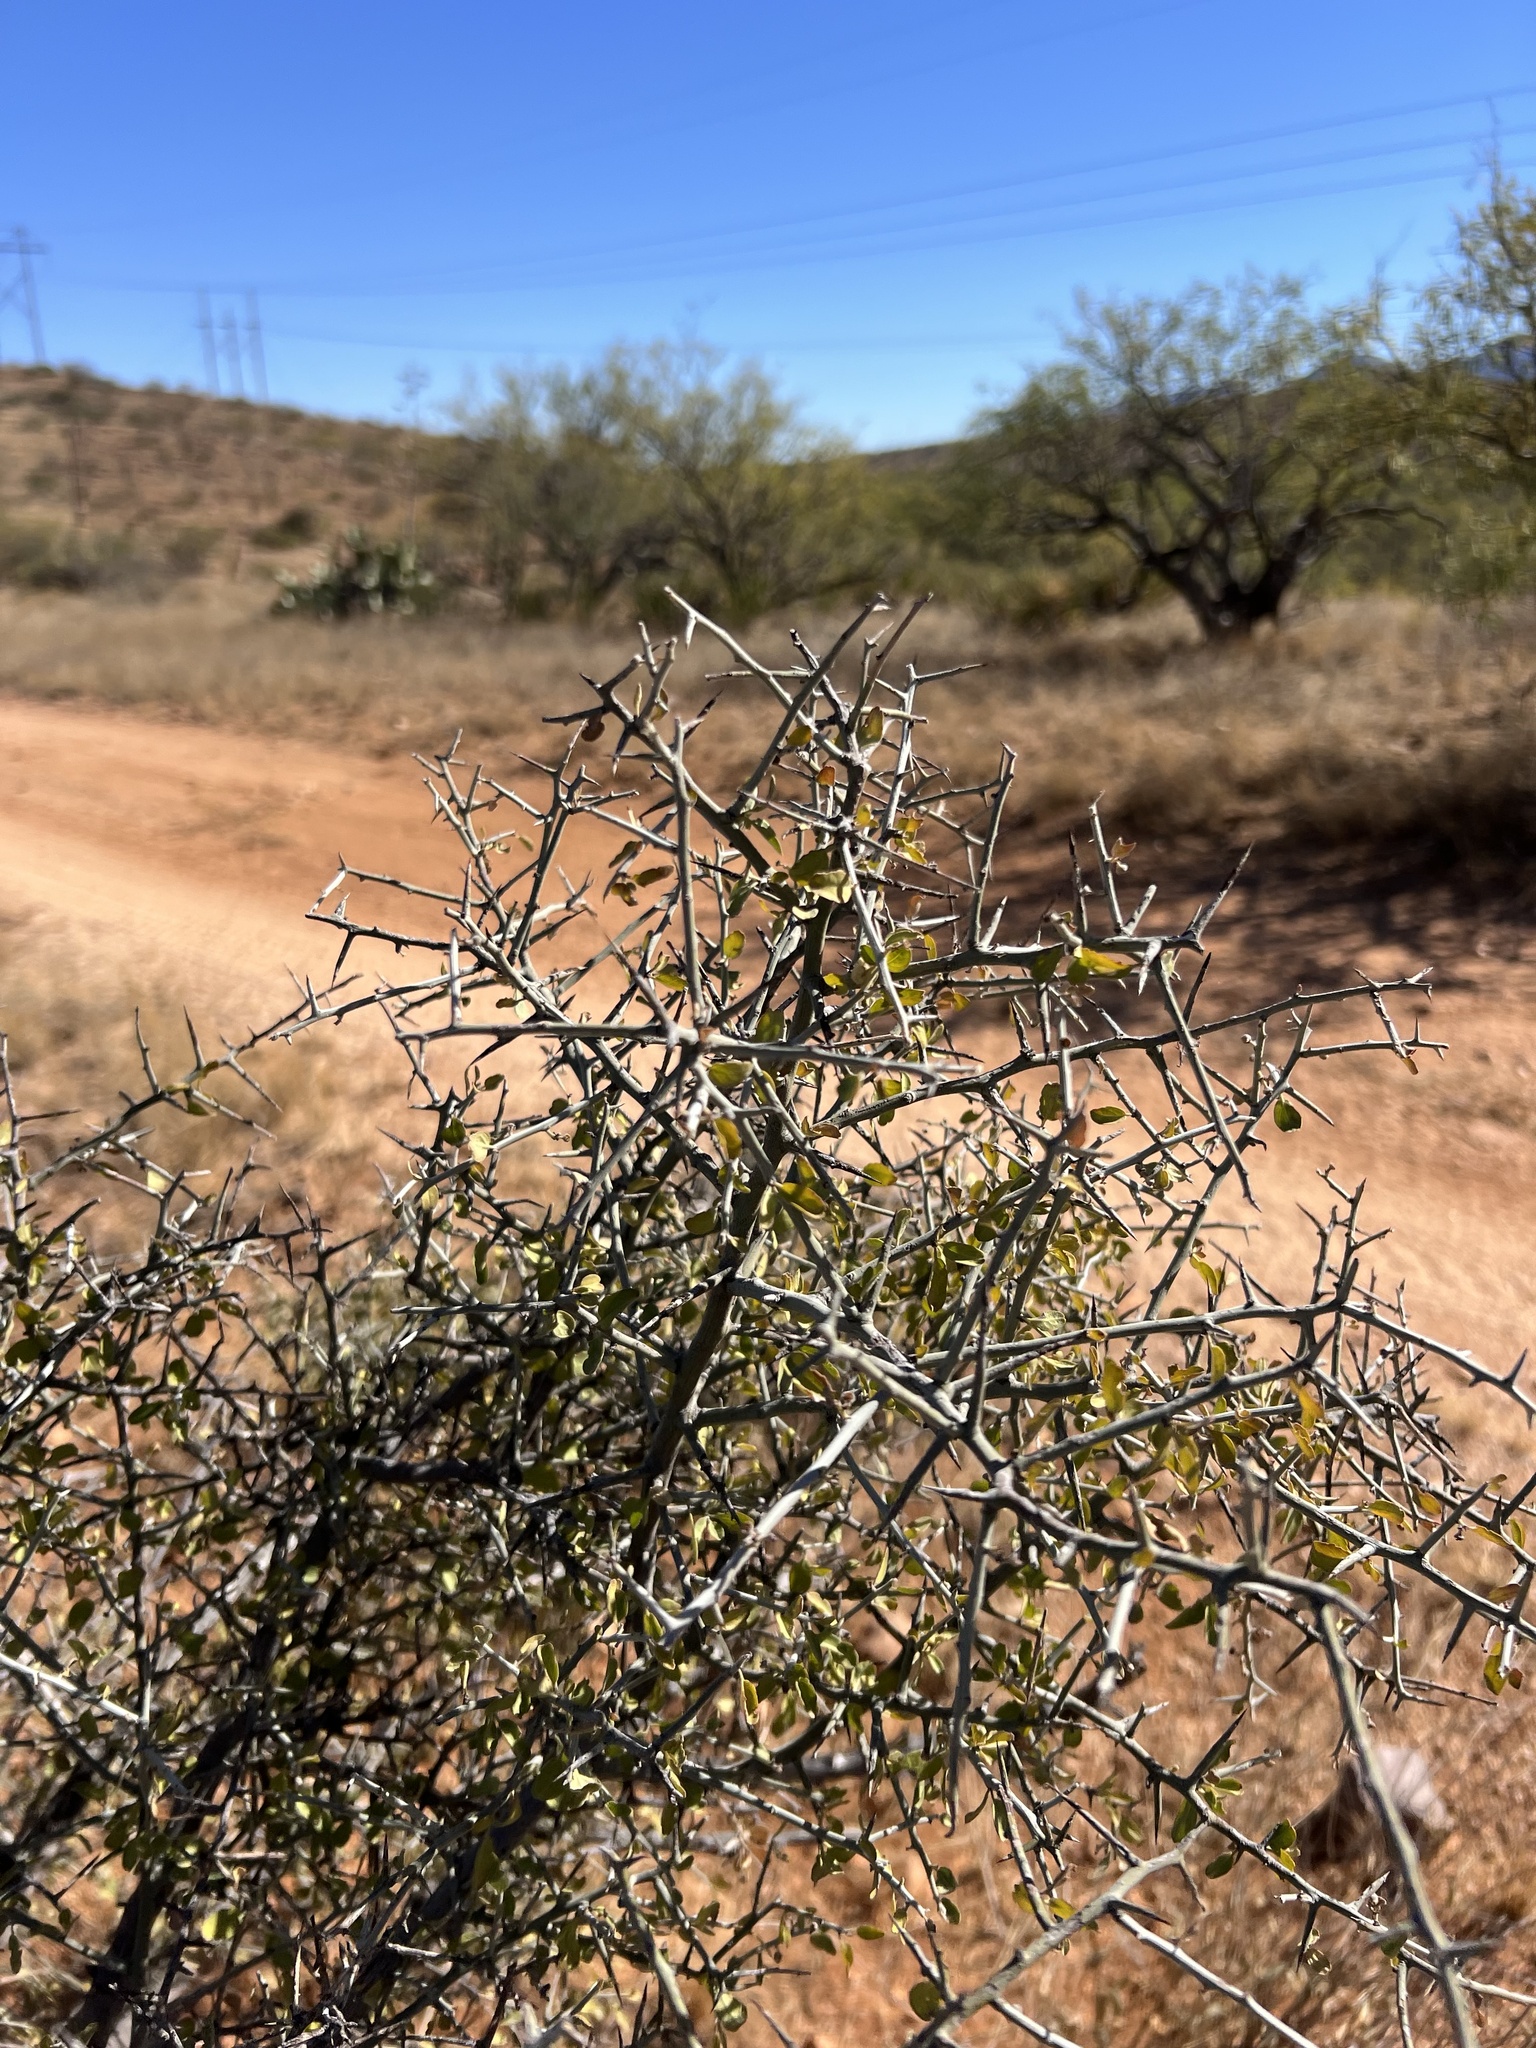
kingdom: Plantae
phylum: Tracheophyta
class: Magnoliopsida
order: Rosales
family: Rhamnaceae
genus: Sarcomphalus
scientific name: Sarcomphalus obtusifolius
